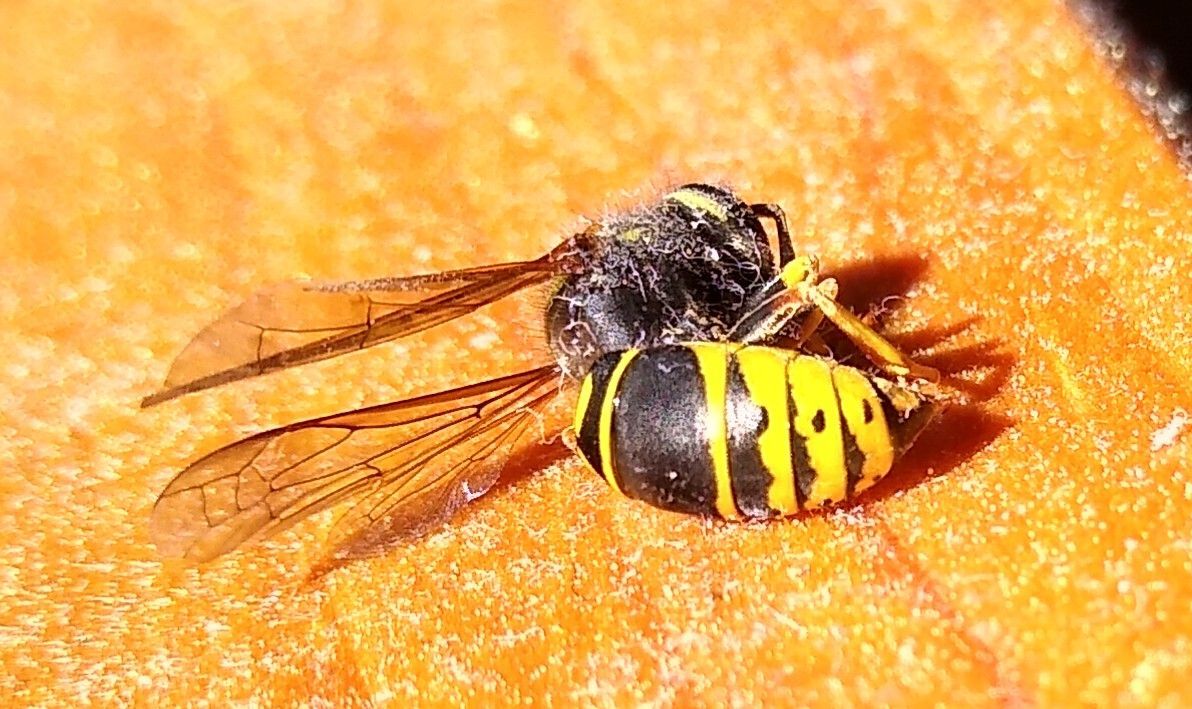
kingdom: Animalia
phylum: Arthropoda
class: Insecta
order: Hymenoptera
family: Vespidae
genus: Vespula
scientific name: Vespula vidua
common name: Widow yellowjacket
